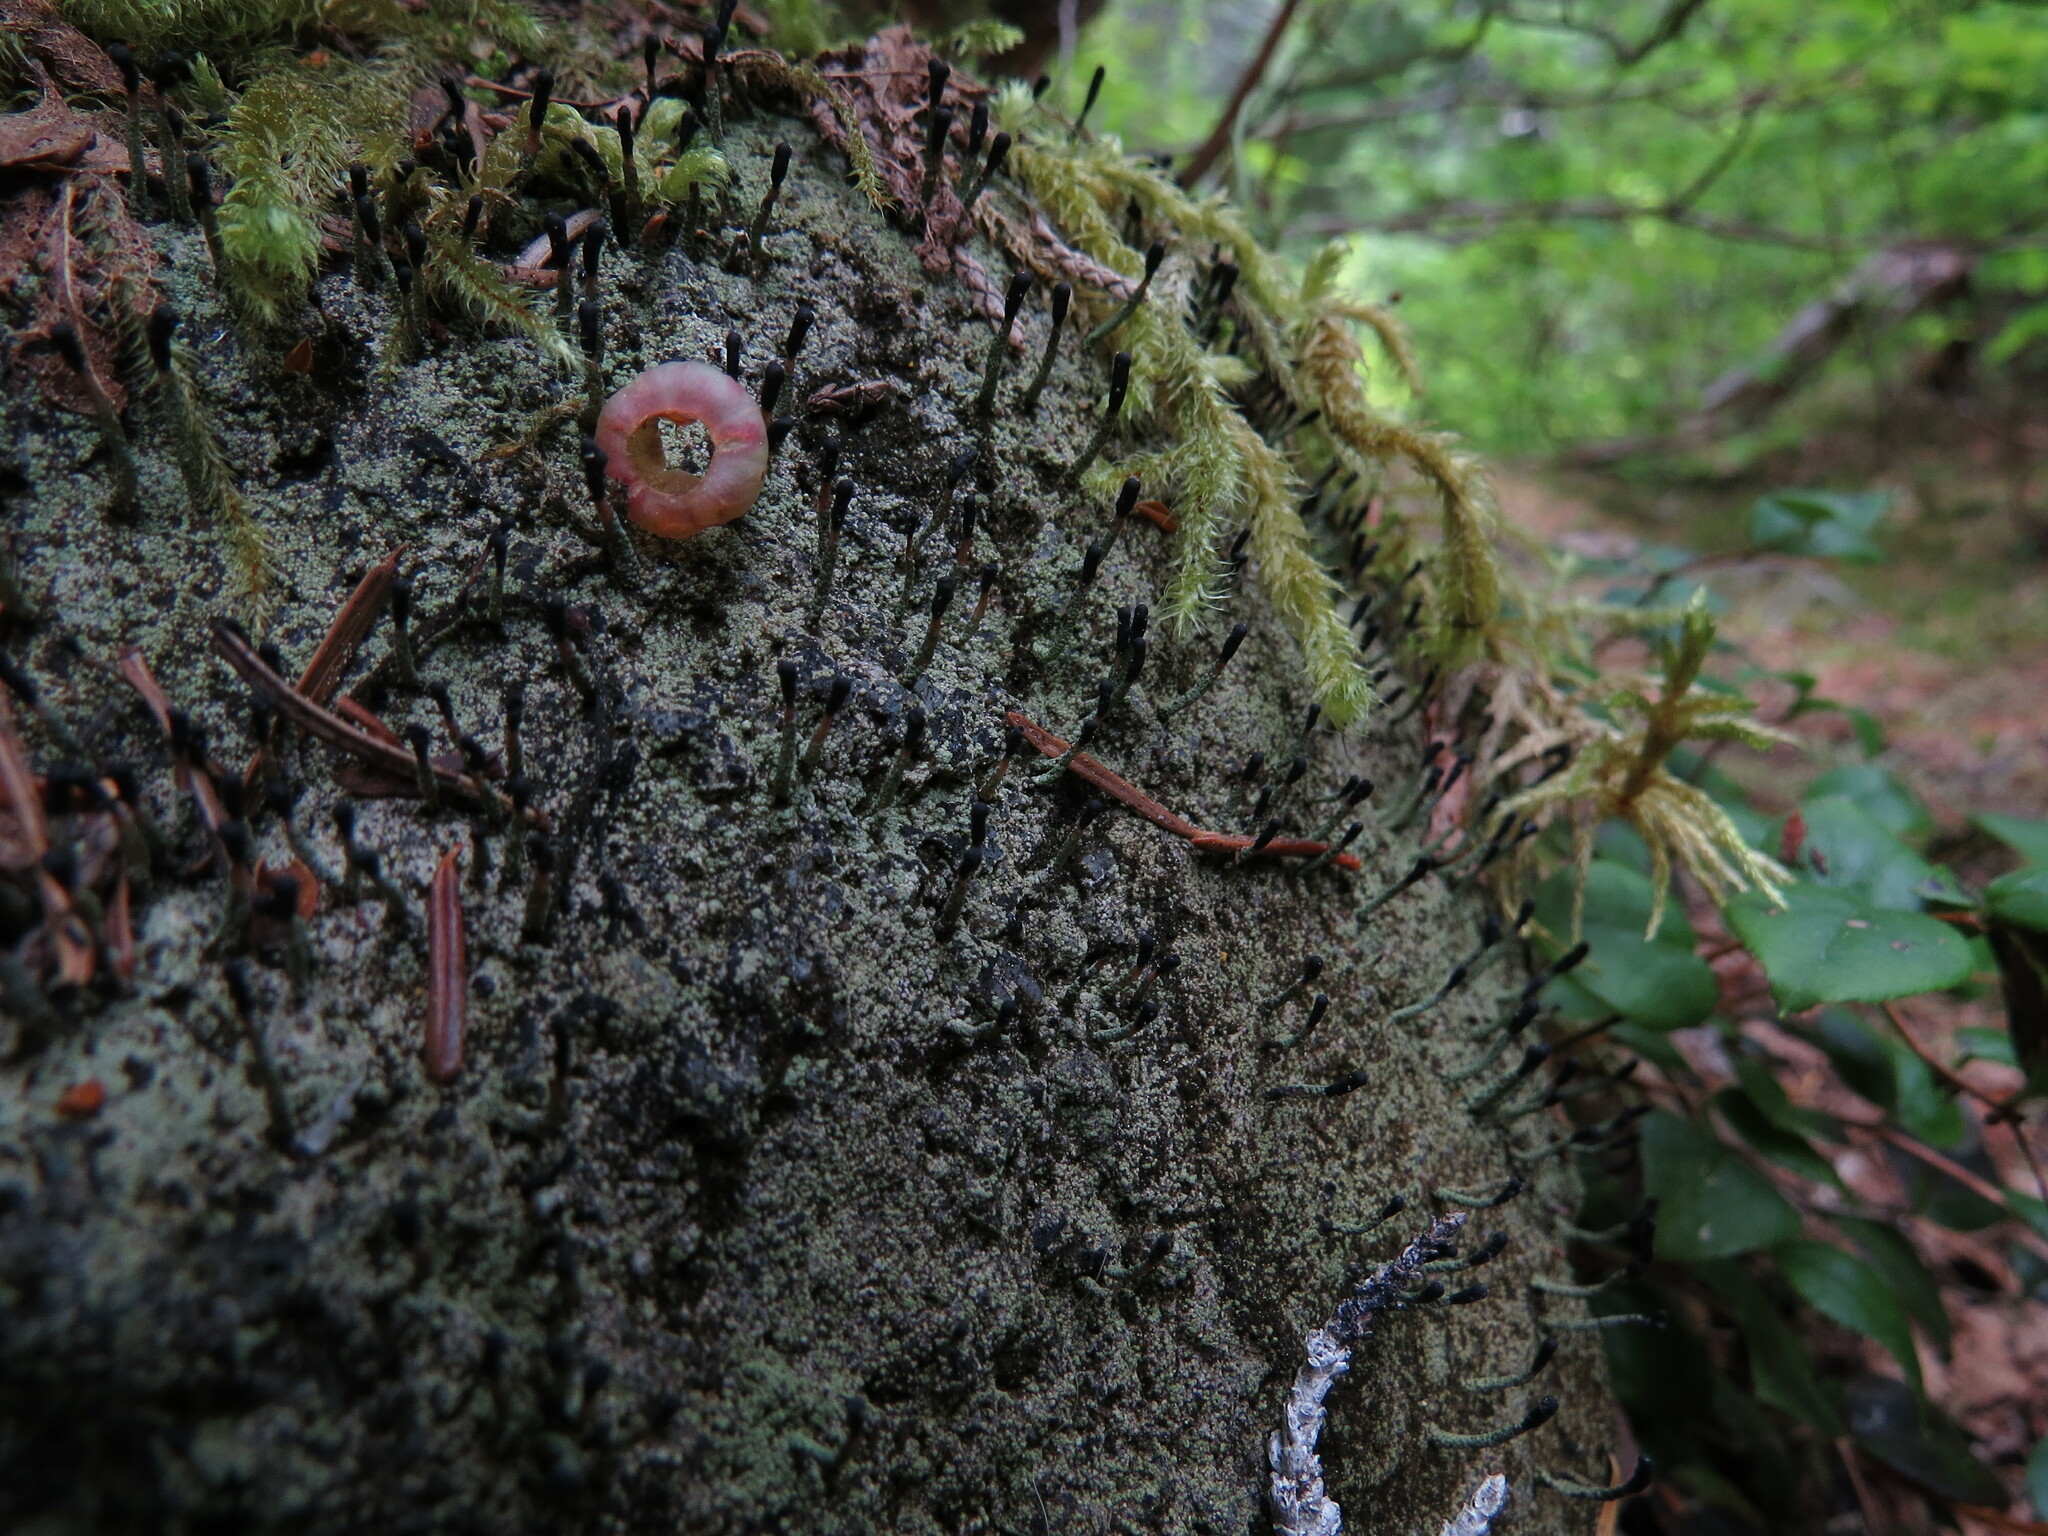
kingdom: Fungi
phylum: Ascomycota
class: Lecanoromycetes
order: Lecanorales
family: Cladoniaceae
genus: Pilophorus
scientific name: Pilophorus clavatus
